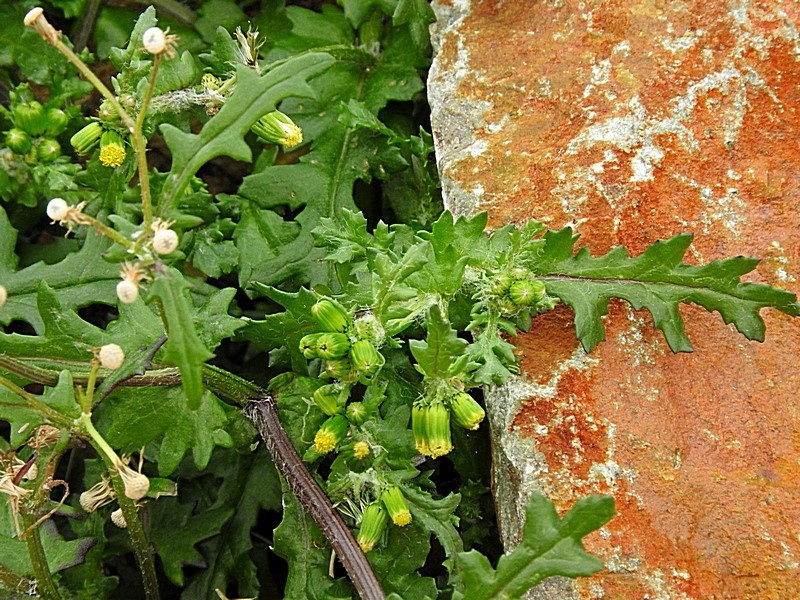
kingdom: Plantae
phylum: Tracheophyta
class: Magnoliopsida
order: Asterales
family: Asteraceae
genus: Senecio
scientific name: Senecio hispidulus
